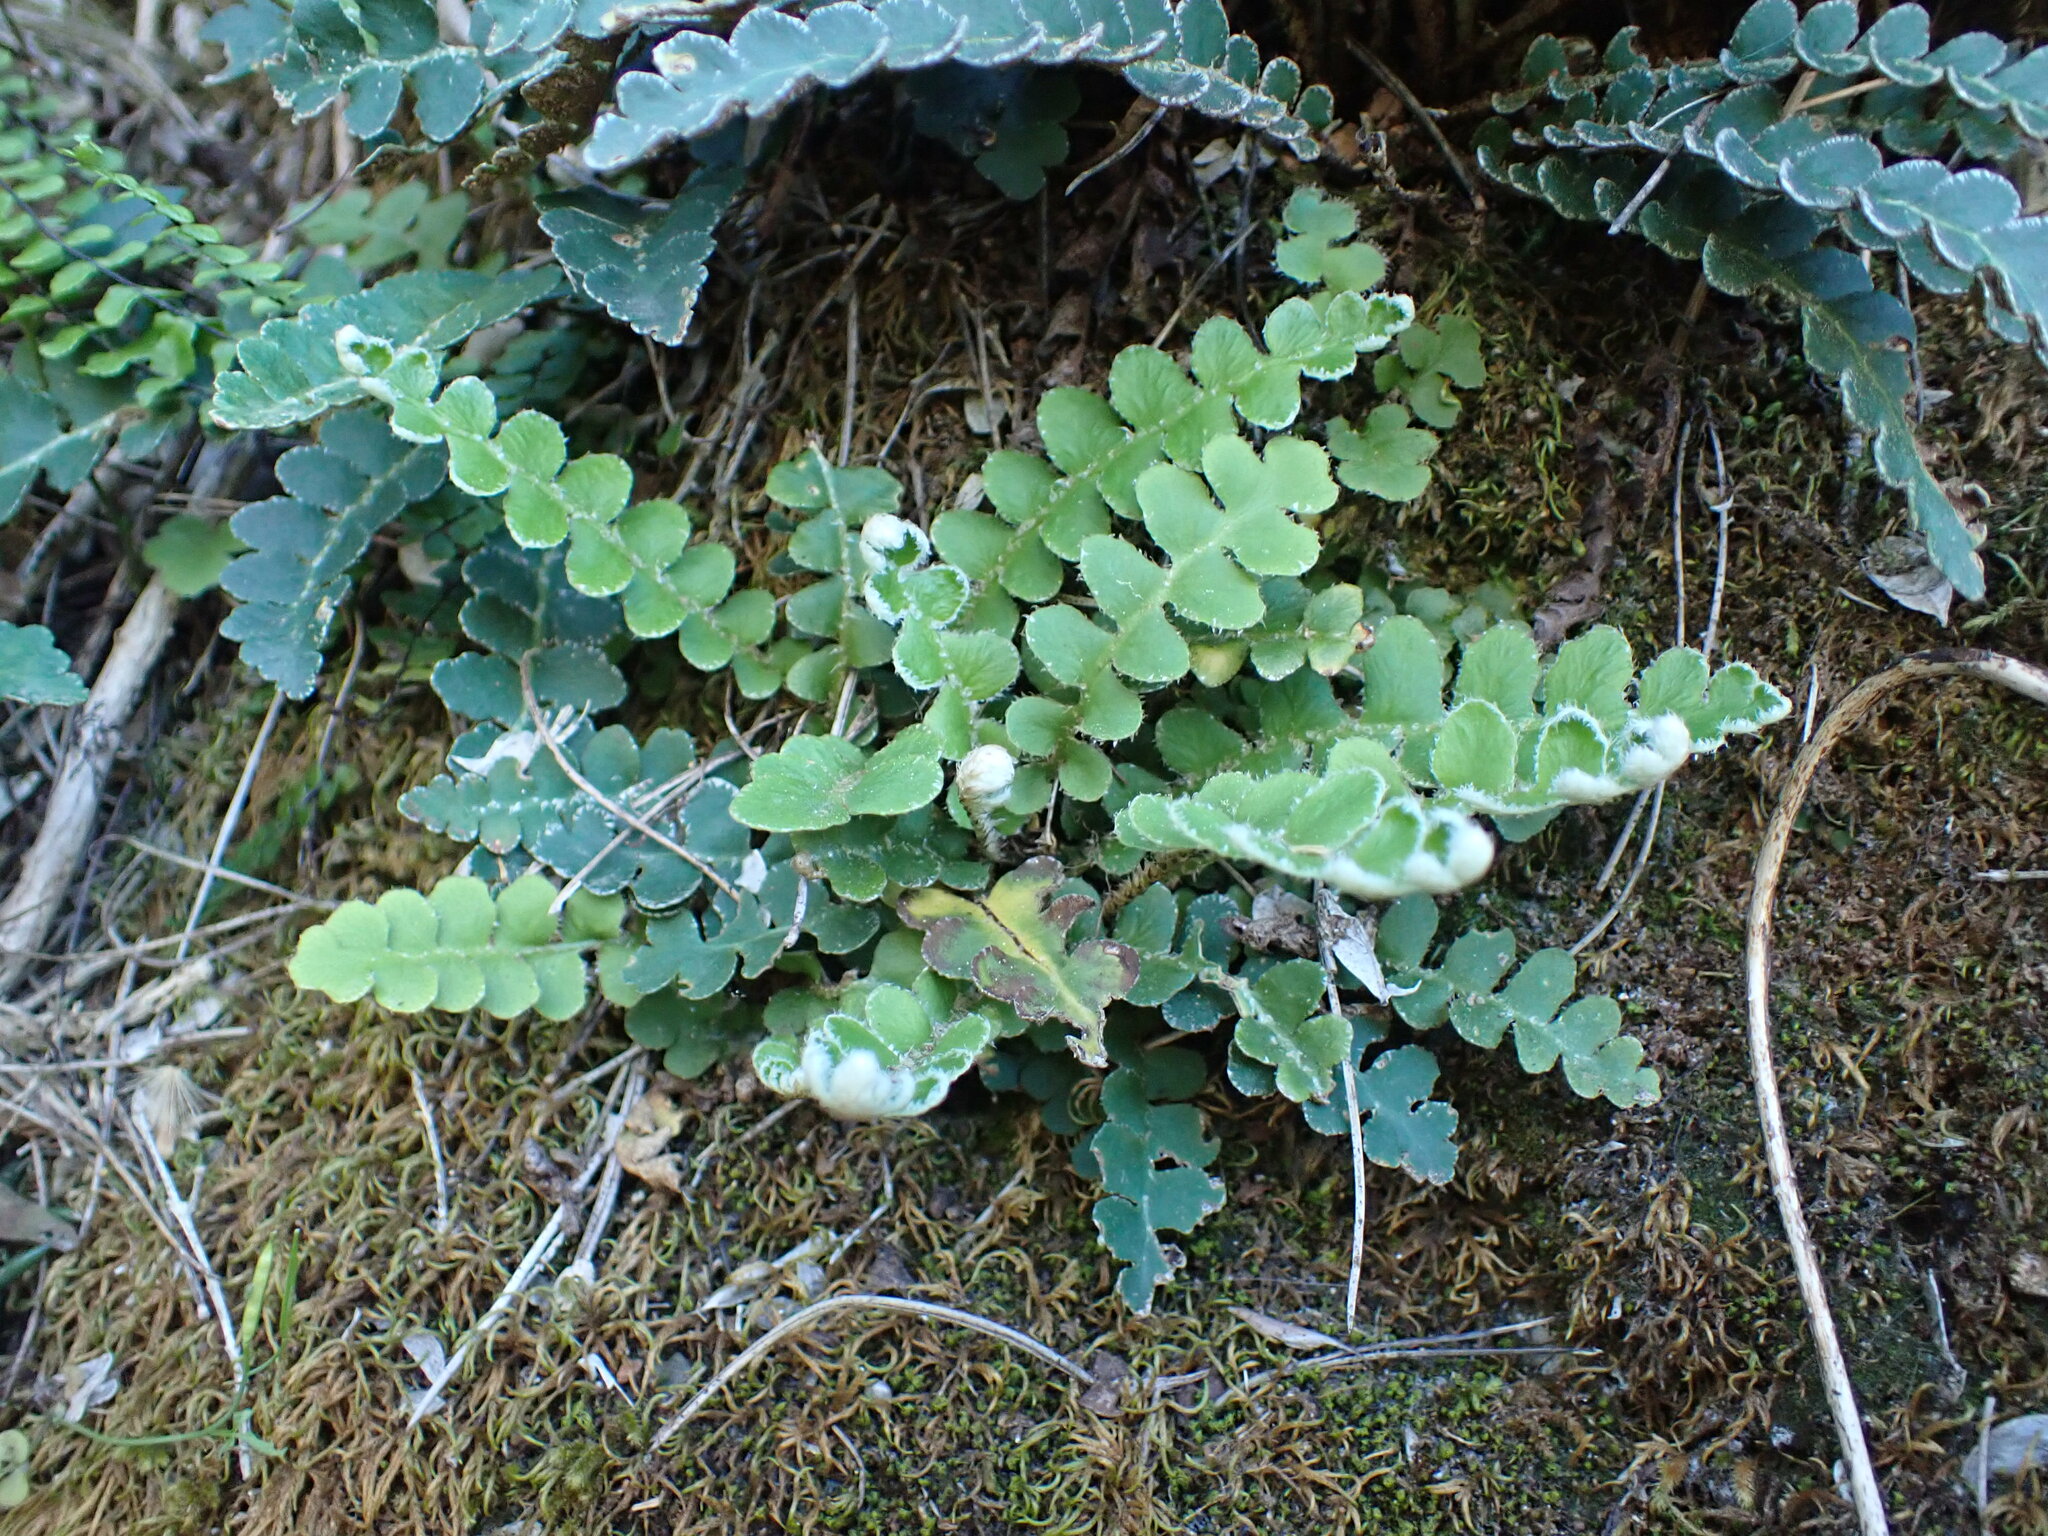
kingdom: Plantae
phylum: Tracheophyta
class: Polypodiopsida
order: Polypodiales
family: Aspleniaceae
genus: Asplenium
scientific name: Asplenium ceterach
